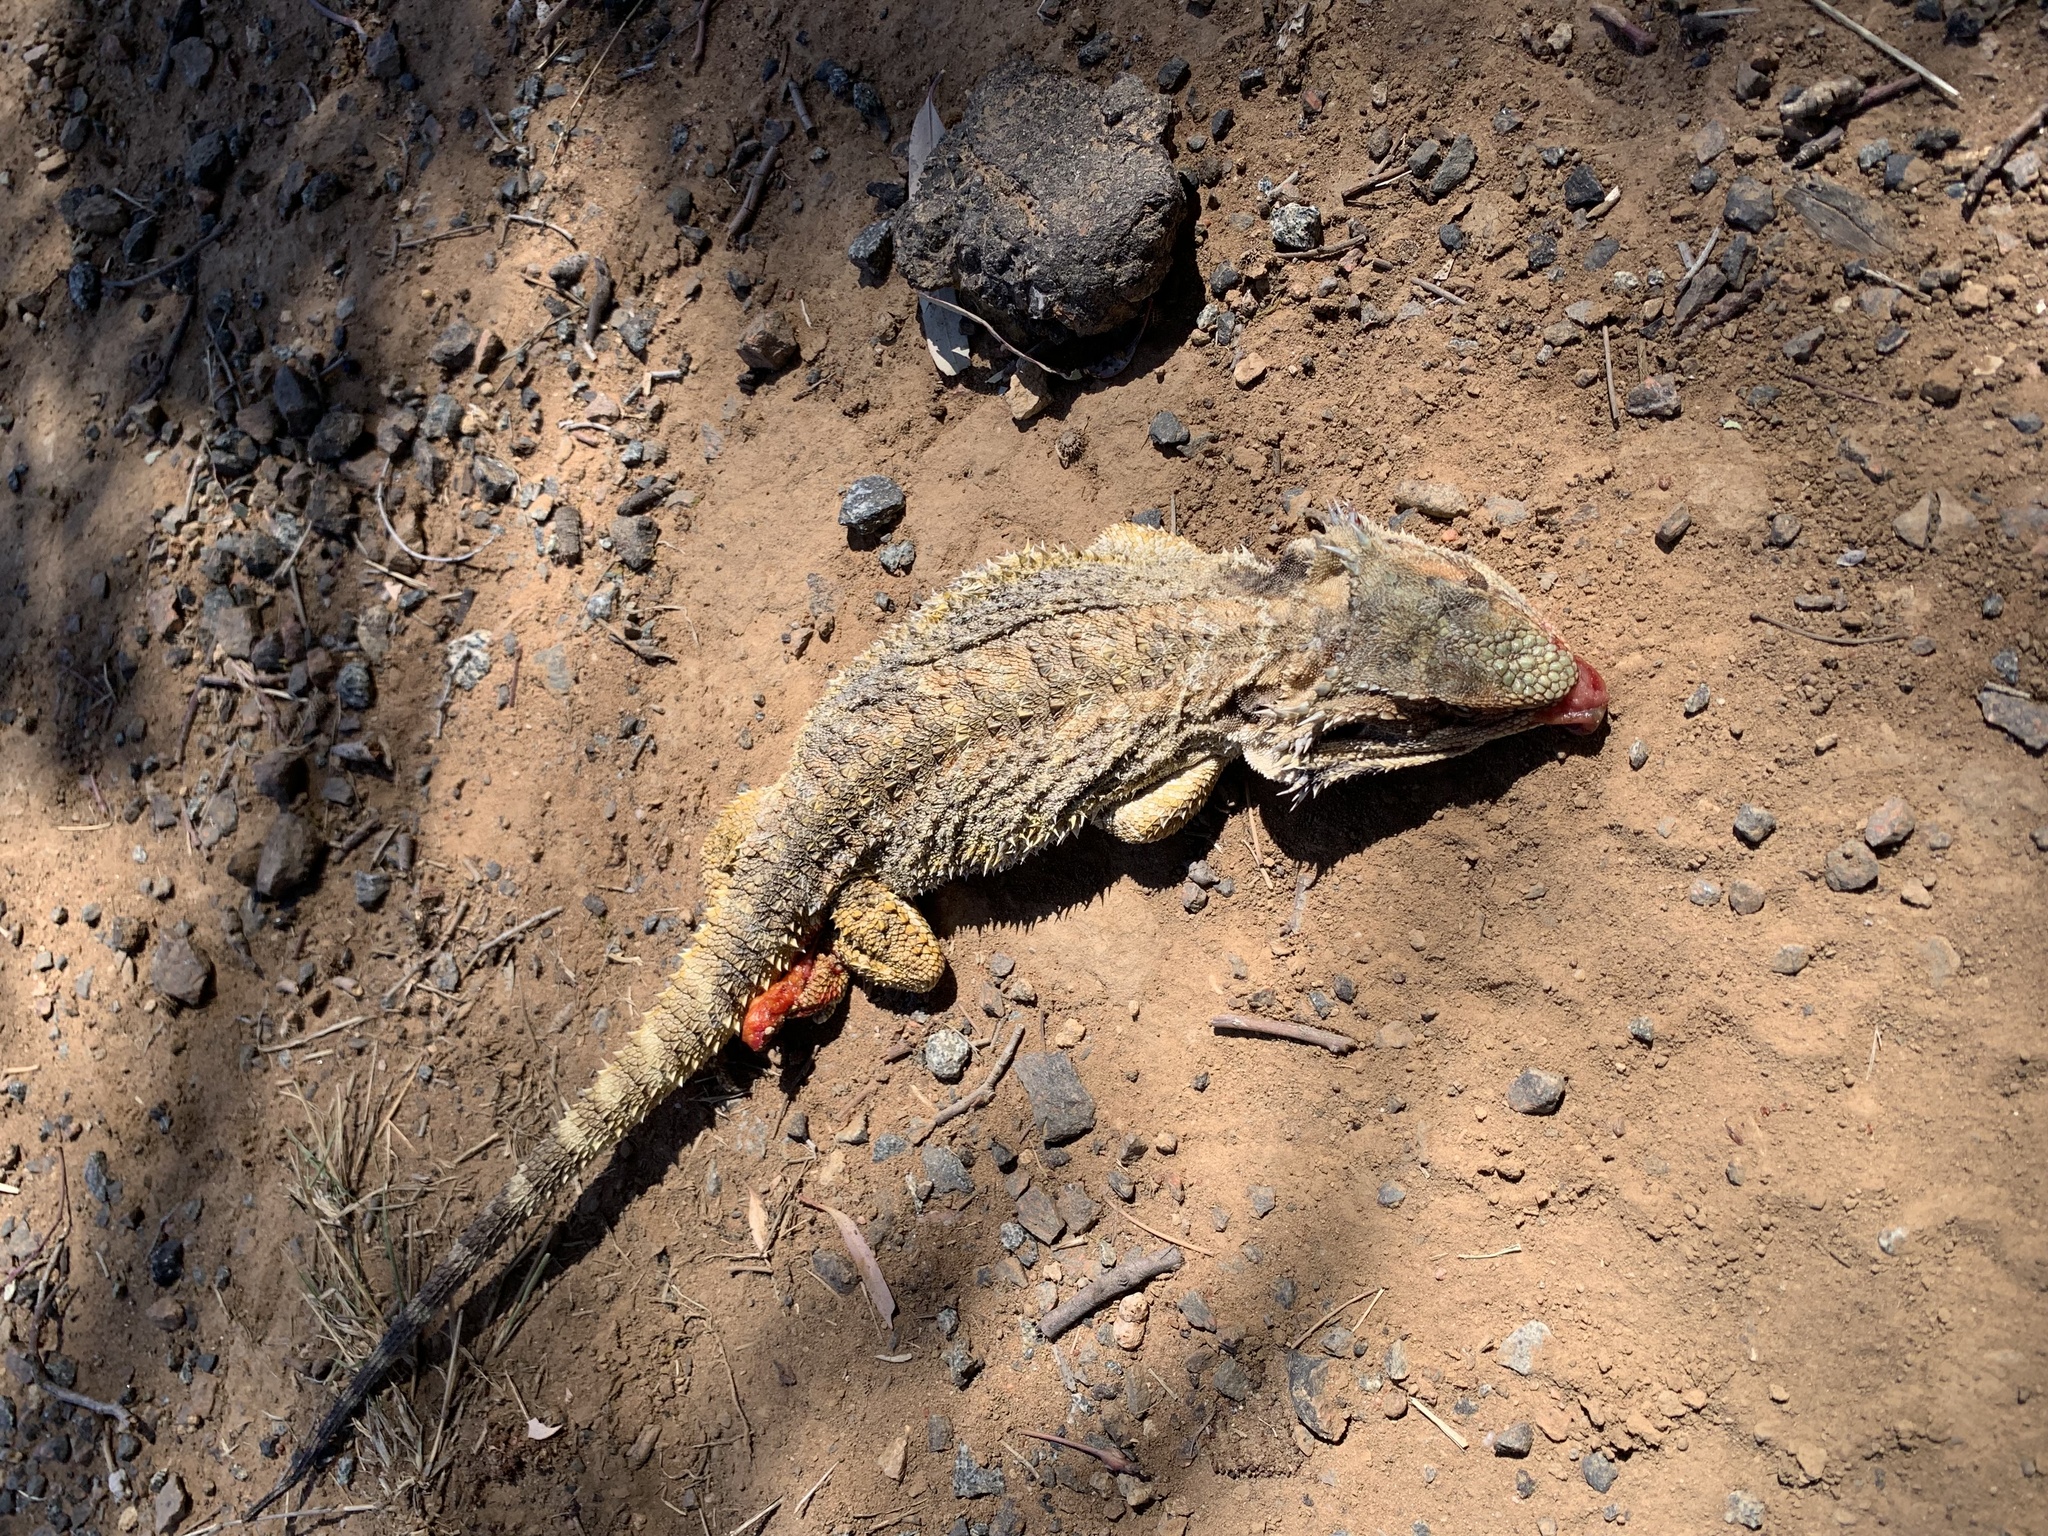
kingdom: Animalia
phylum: Chordata
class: Squamata
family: Agamidae
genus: Pogona
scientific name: Pogona barbata
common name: Bearded dragon
